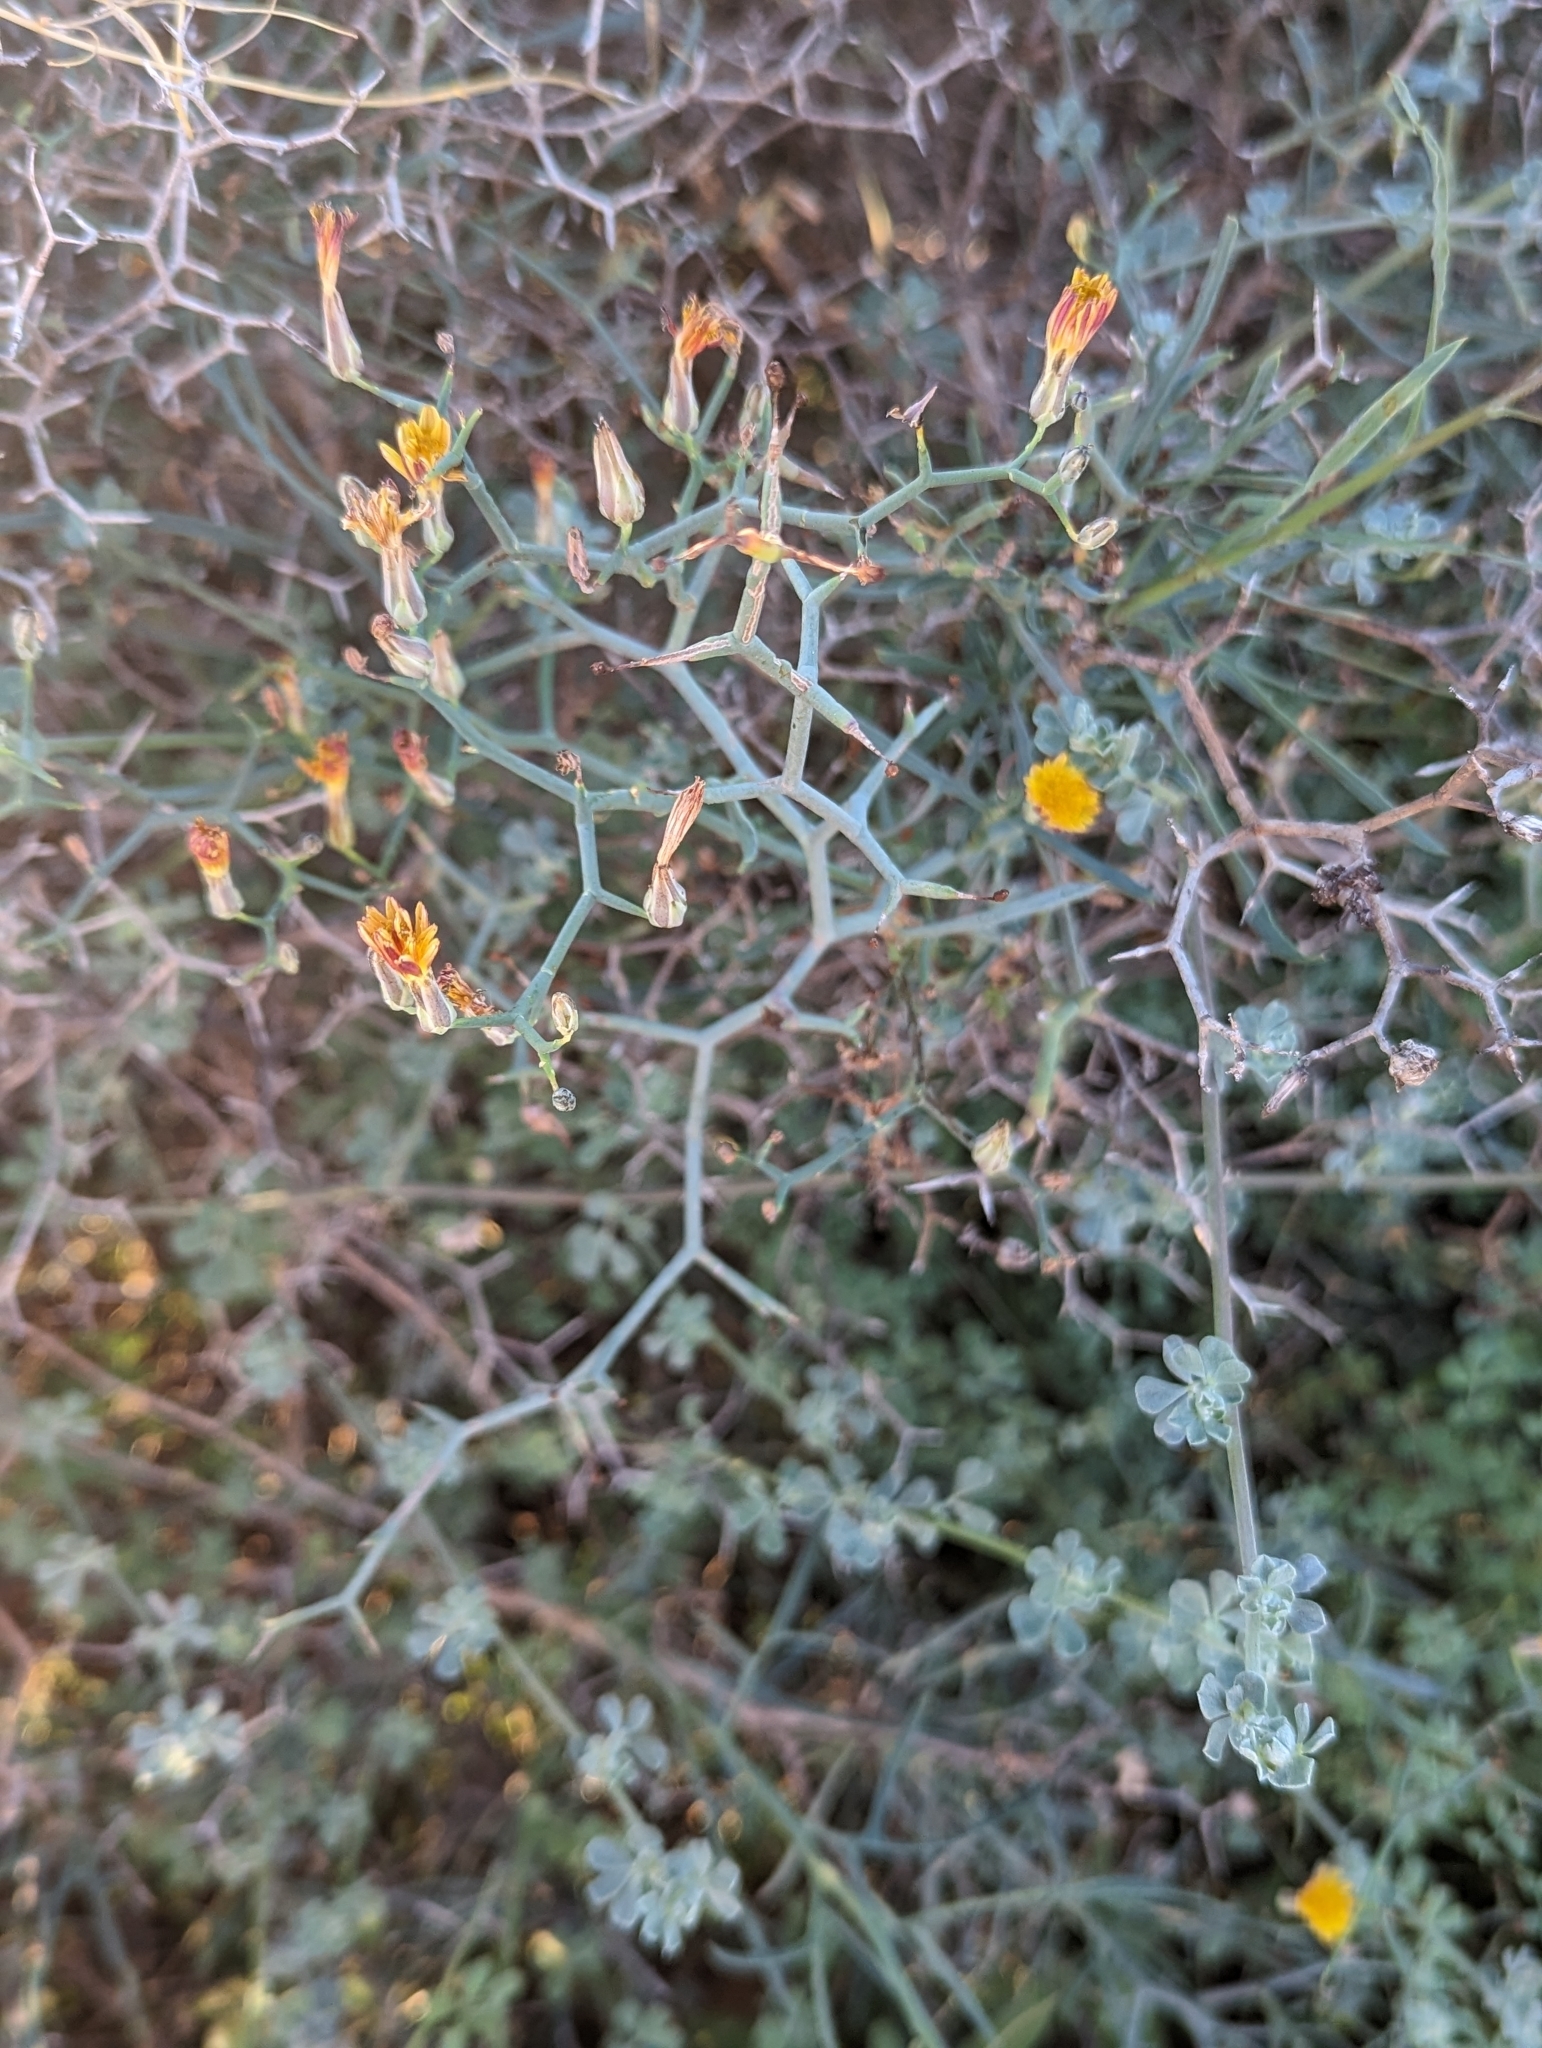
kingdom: Plantae
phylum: Tracheophyta
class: Magnoliopsida
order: Asterales
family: Asteraceae
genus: Launaea
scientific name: Launaea arborescens
